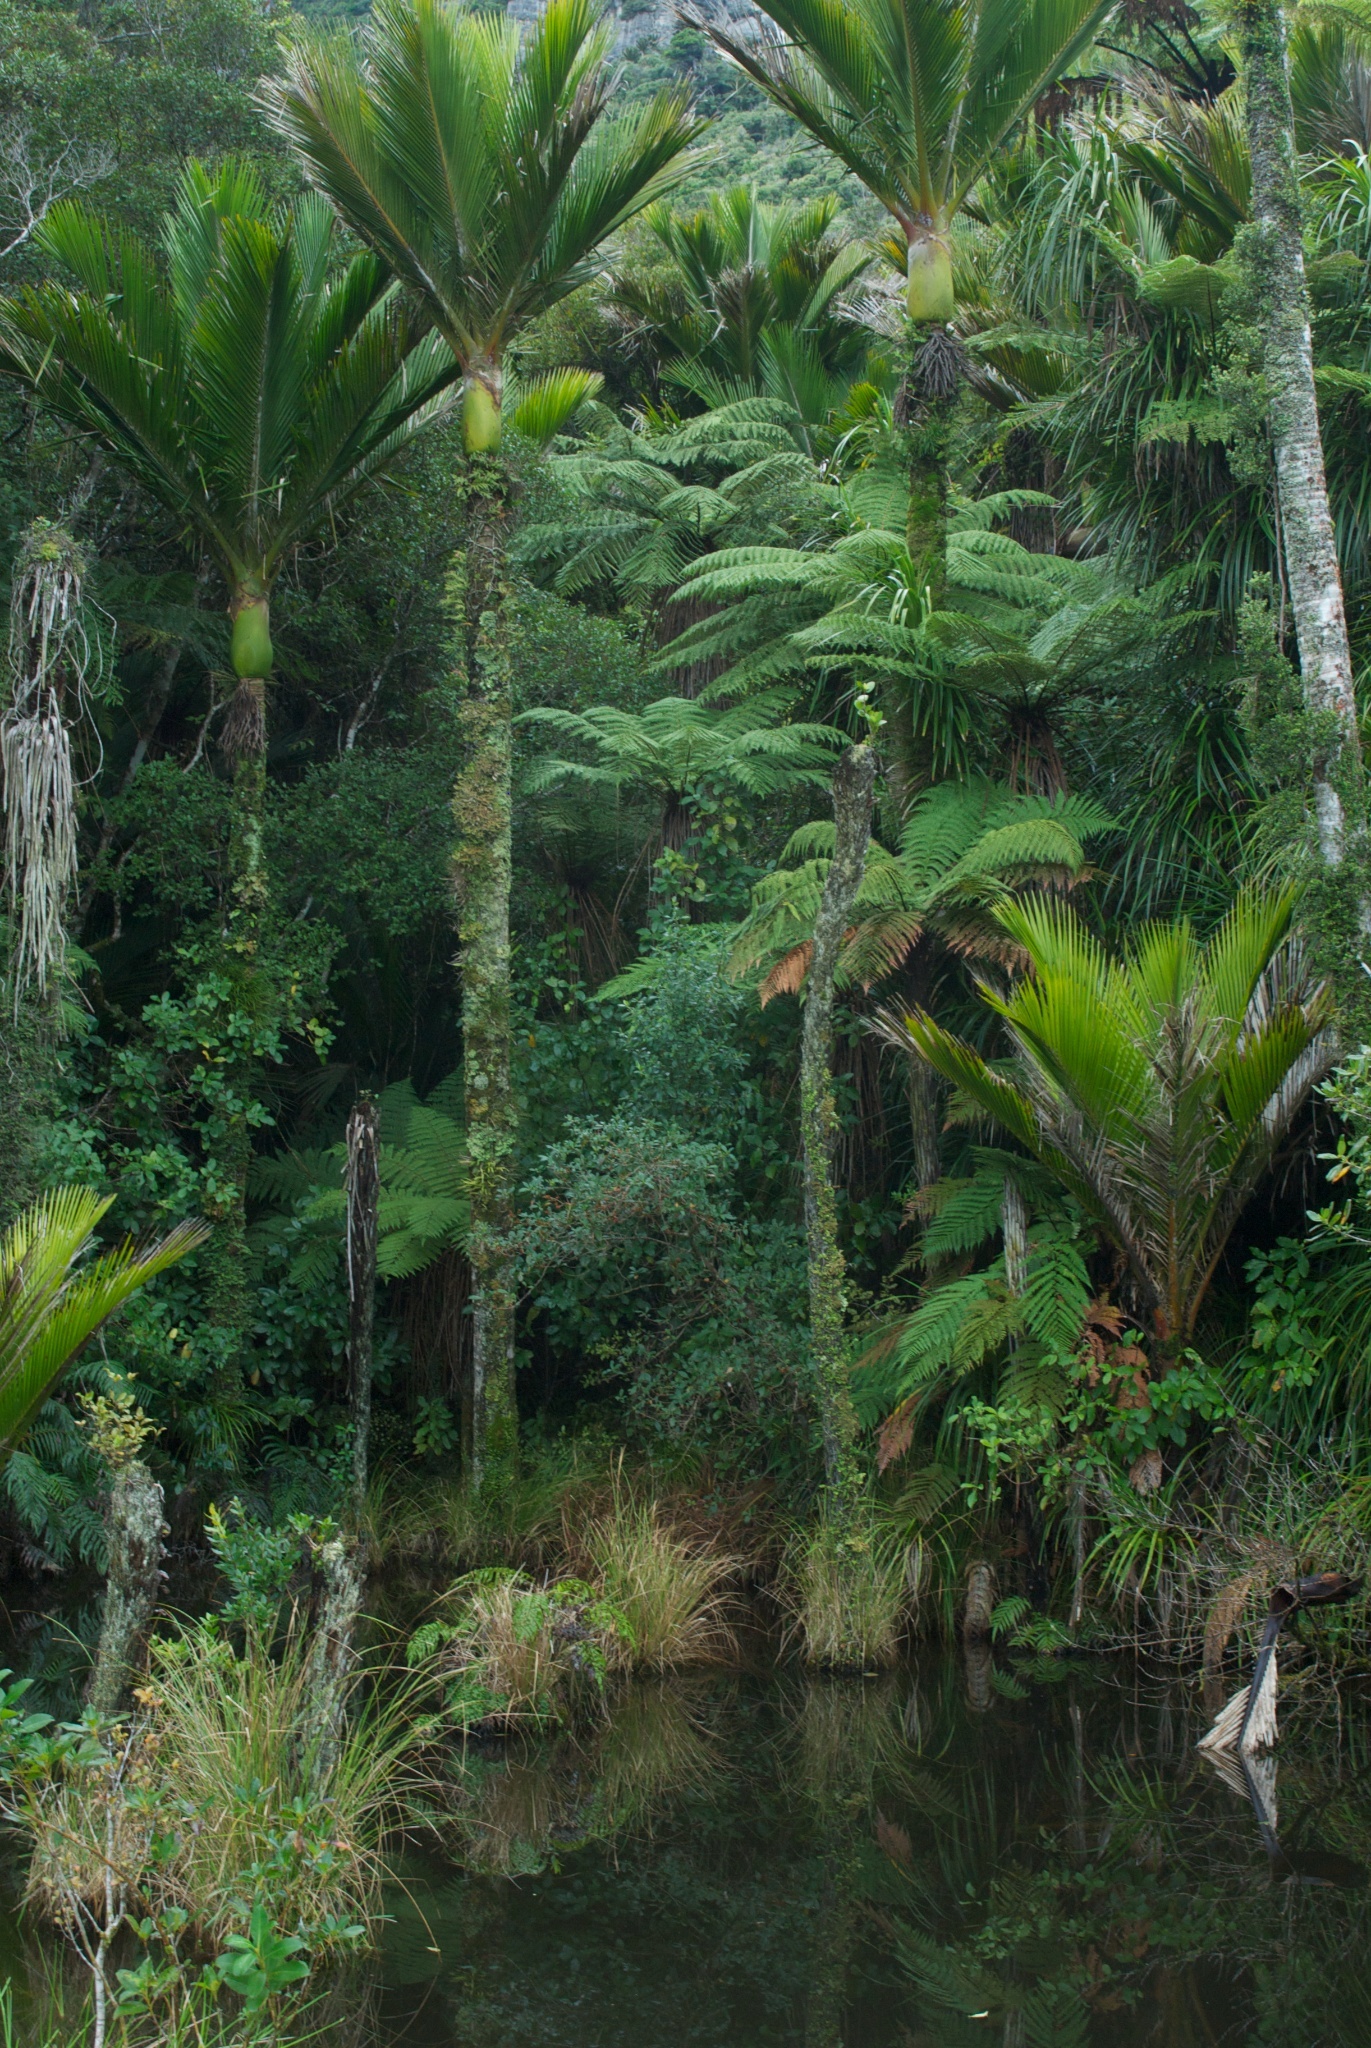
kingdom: Plantae
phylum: Tracheophyta
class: Liliopsida
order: Arecales
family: Arecaceae
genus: Rhopalostylis
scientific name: Rhopalostylis sapida
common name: Feather-duster palm
